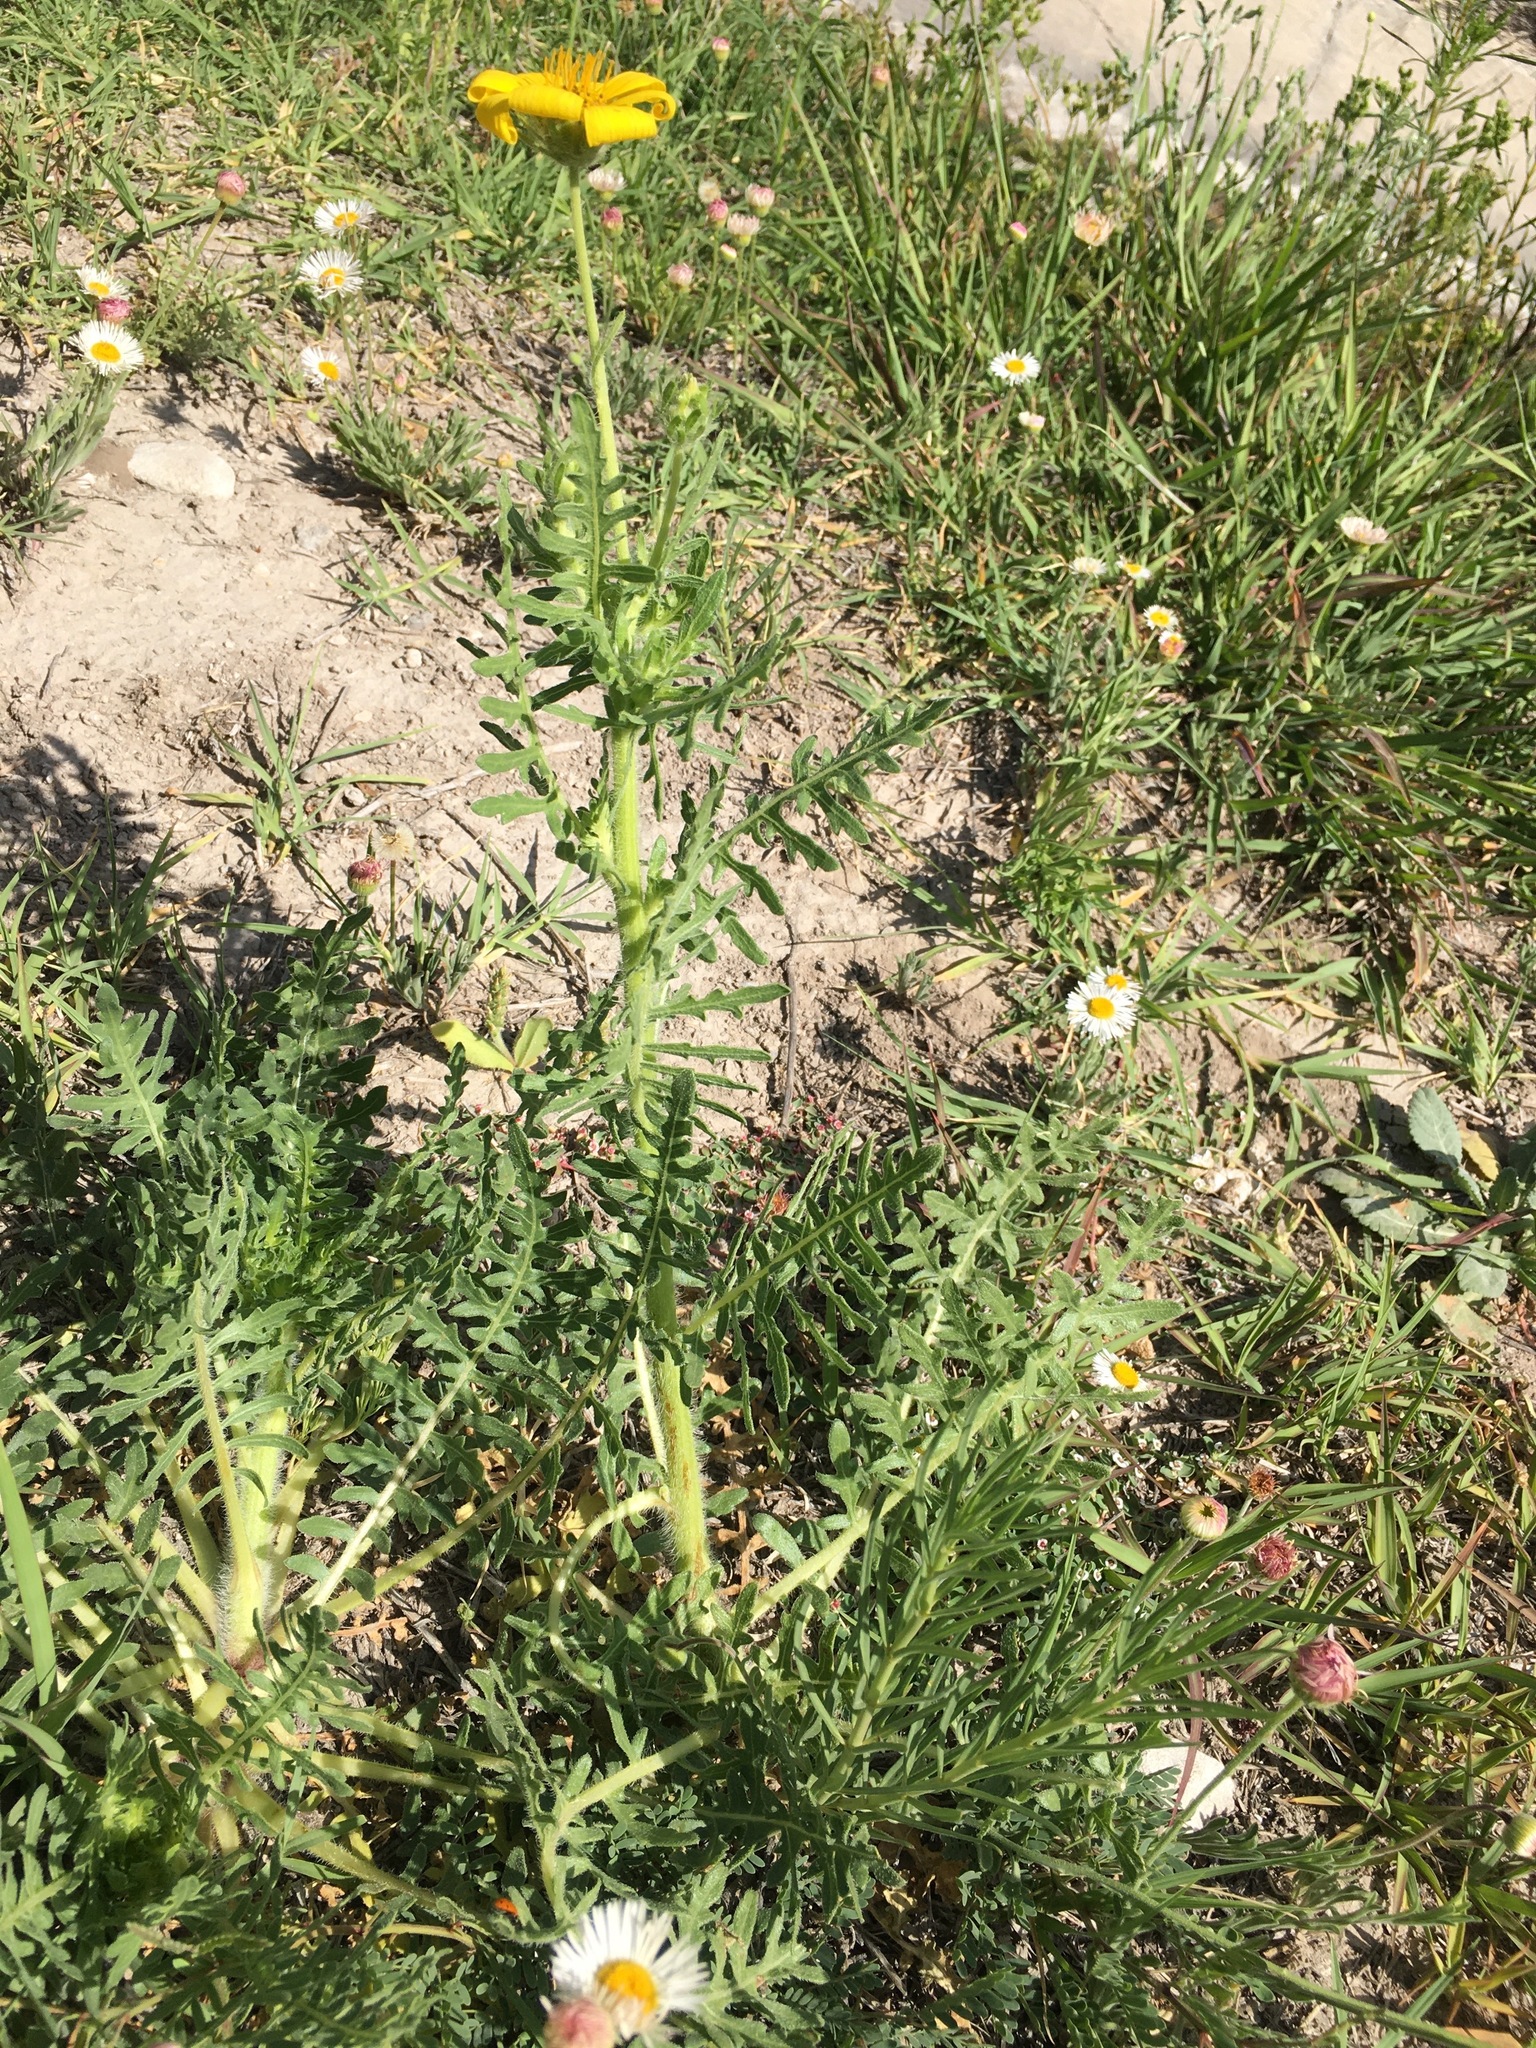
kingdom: Plantae
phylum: Tracheophyta
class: Magnoliopsida
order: Asterales
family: Asteraceae
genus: Engelmannia
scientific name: Engelmannia peristenia
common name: Engelmann's daisy
